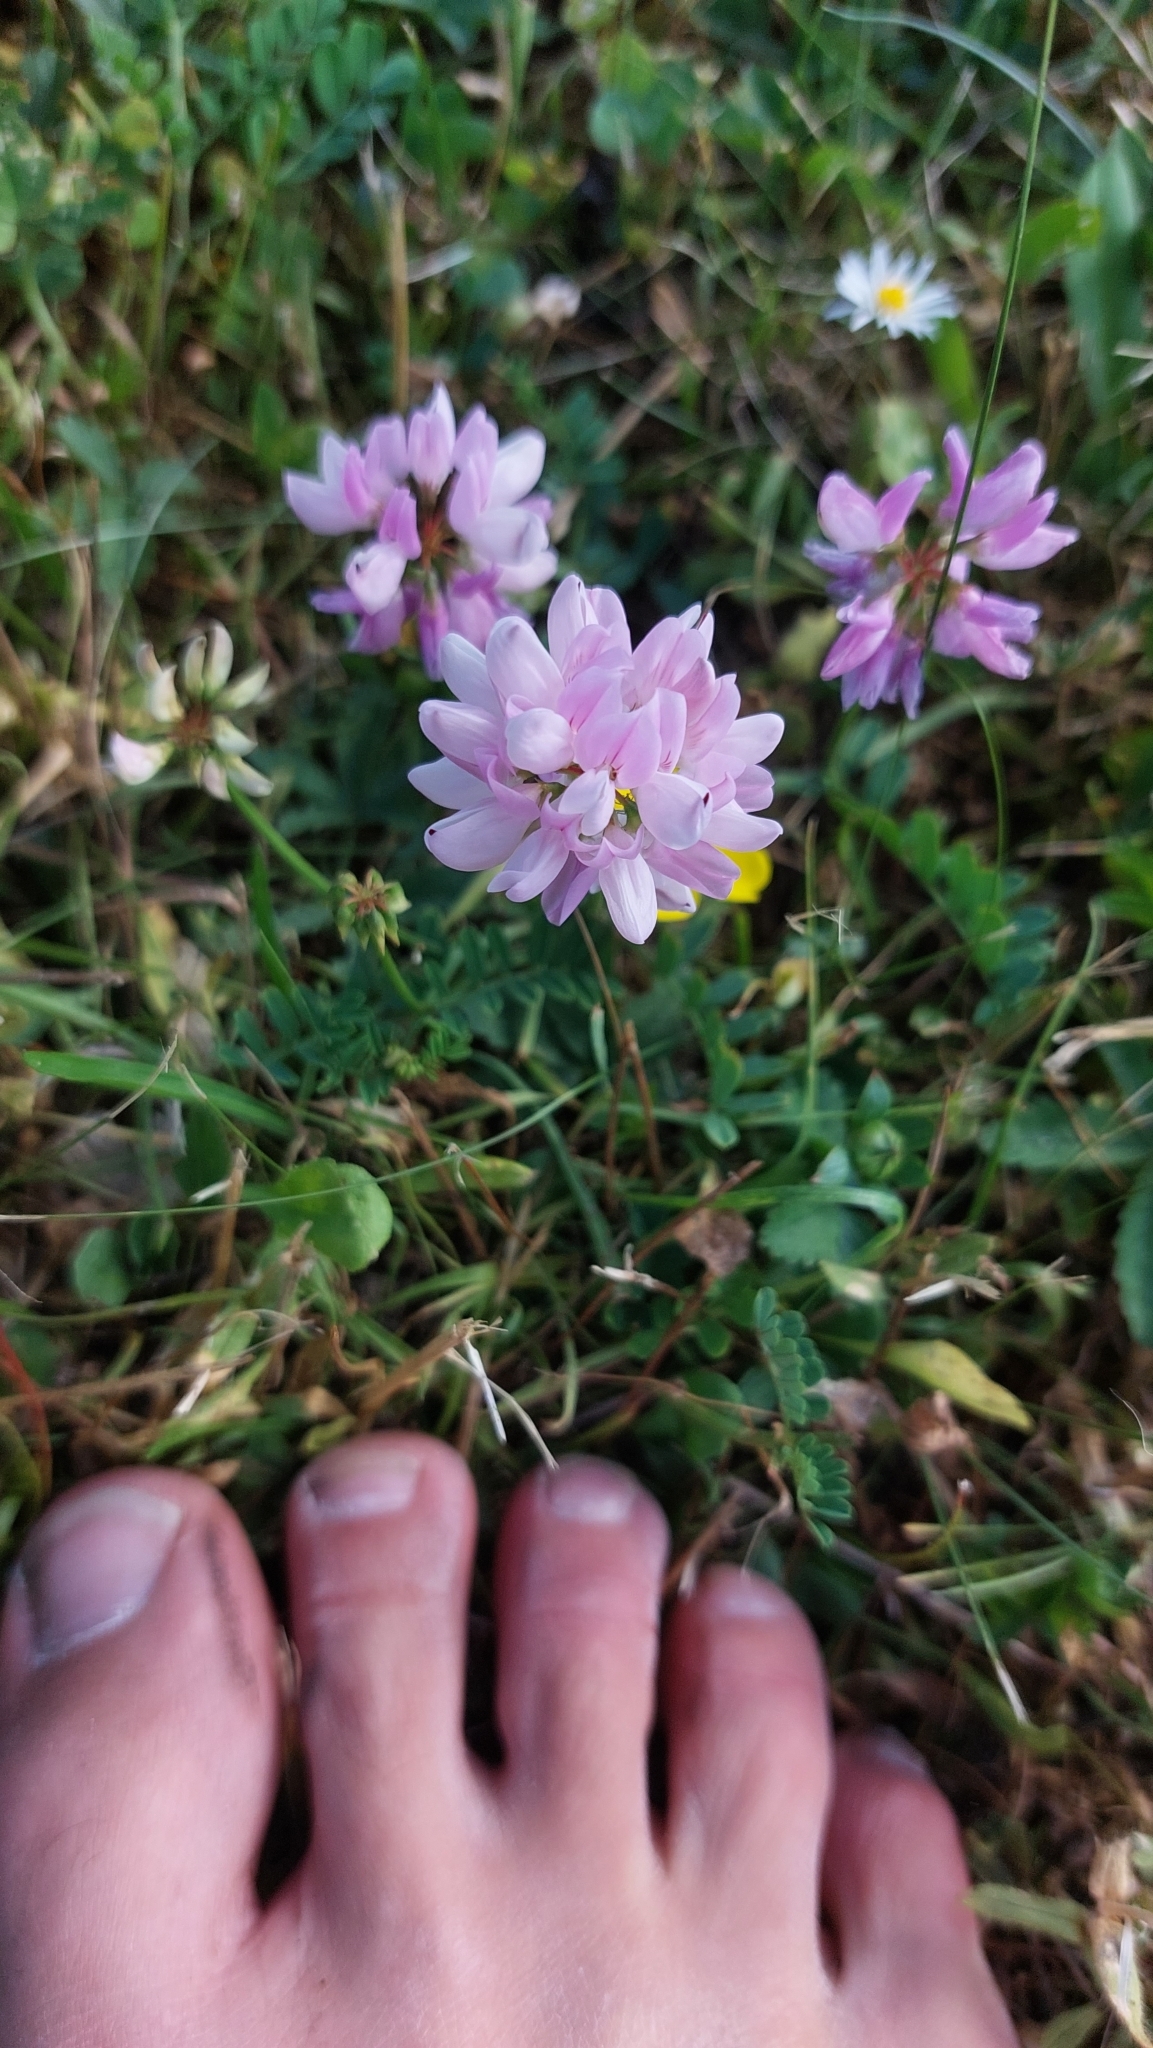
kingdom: Plantae
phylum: Tracheophyta
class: Magnoliopsida
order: Fabales
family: Fabaceae
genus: Coronilla
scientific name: Coronilla varia
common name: Crownvetch
